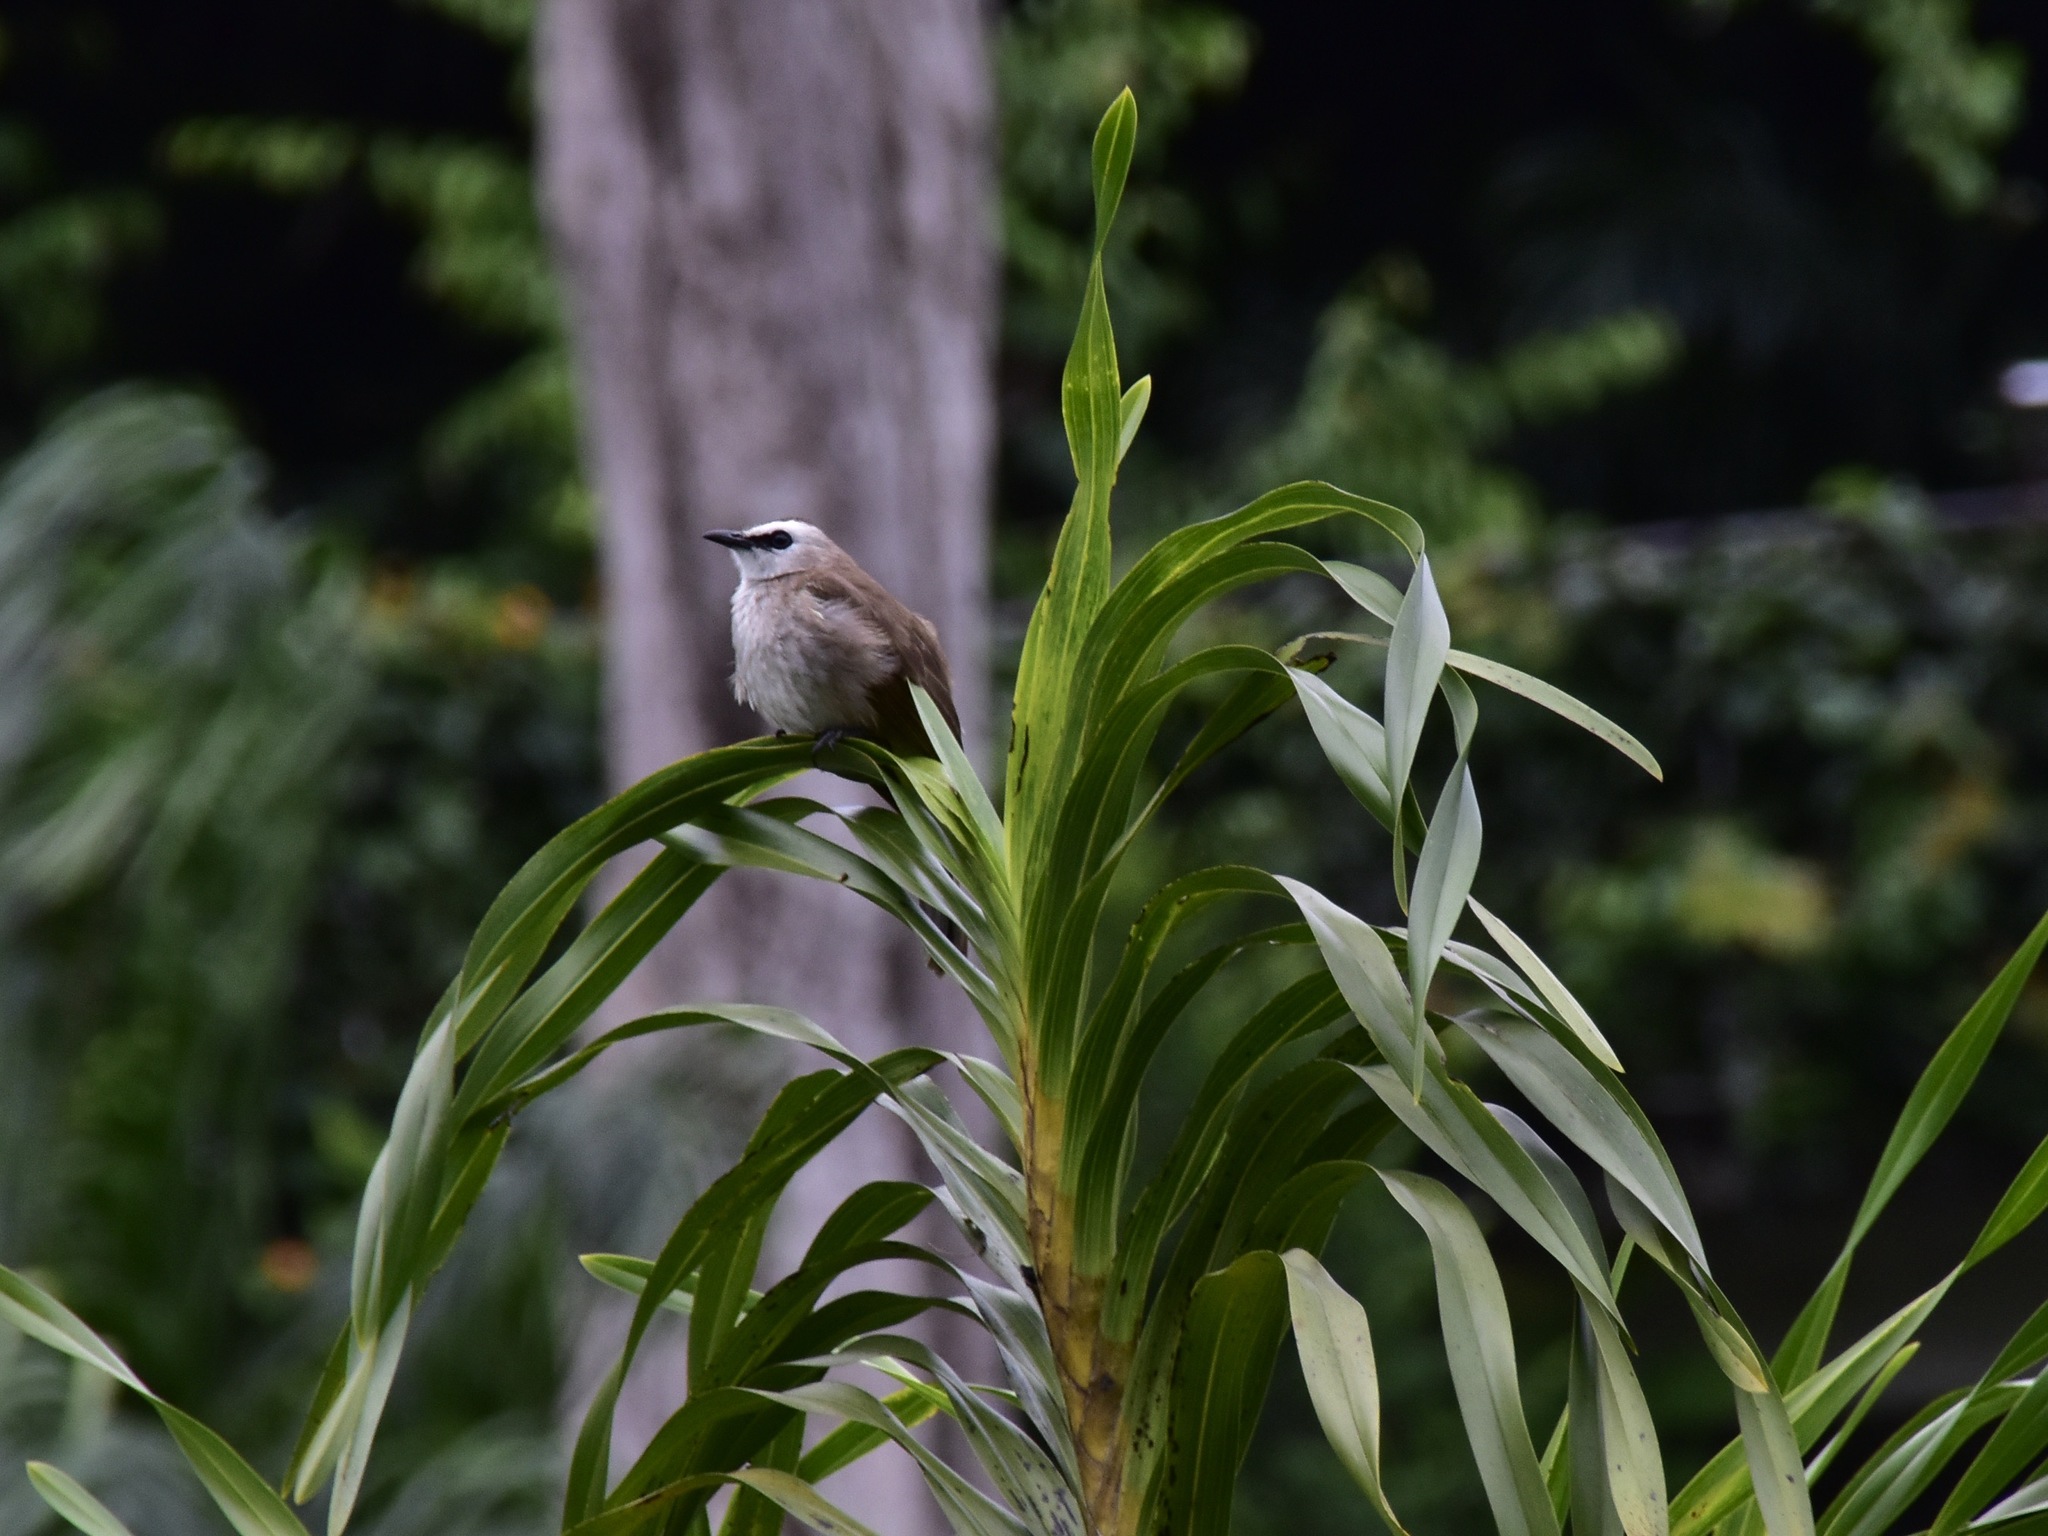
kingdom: Animalia
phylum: Chordata
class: Aves
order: Passeriformes
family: Pycnonotidae
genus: Pycnonotus
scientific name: Pycnonotus goiavier
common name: Yellow-vented bulbul
